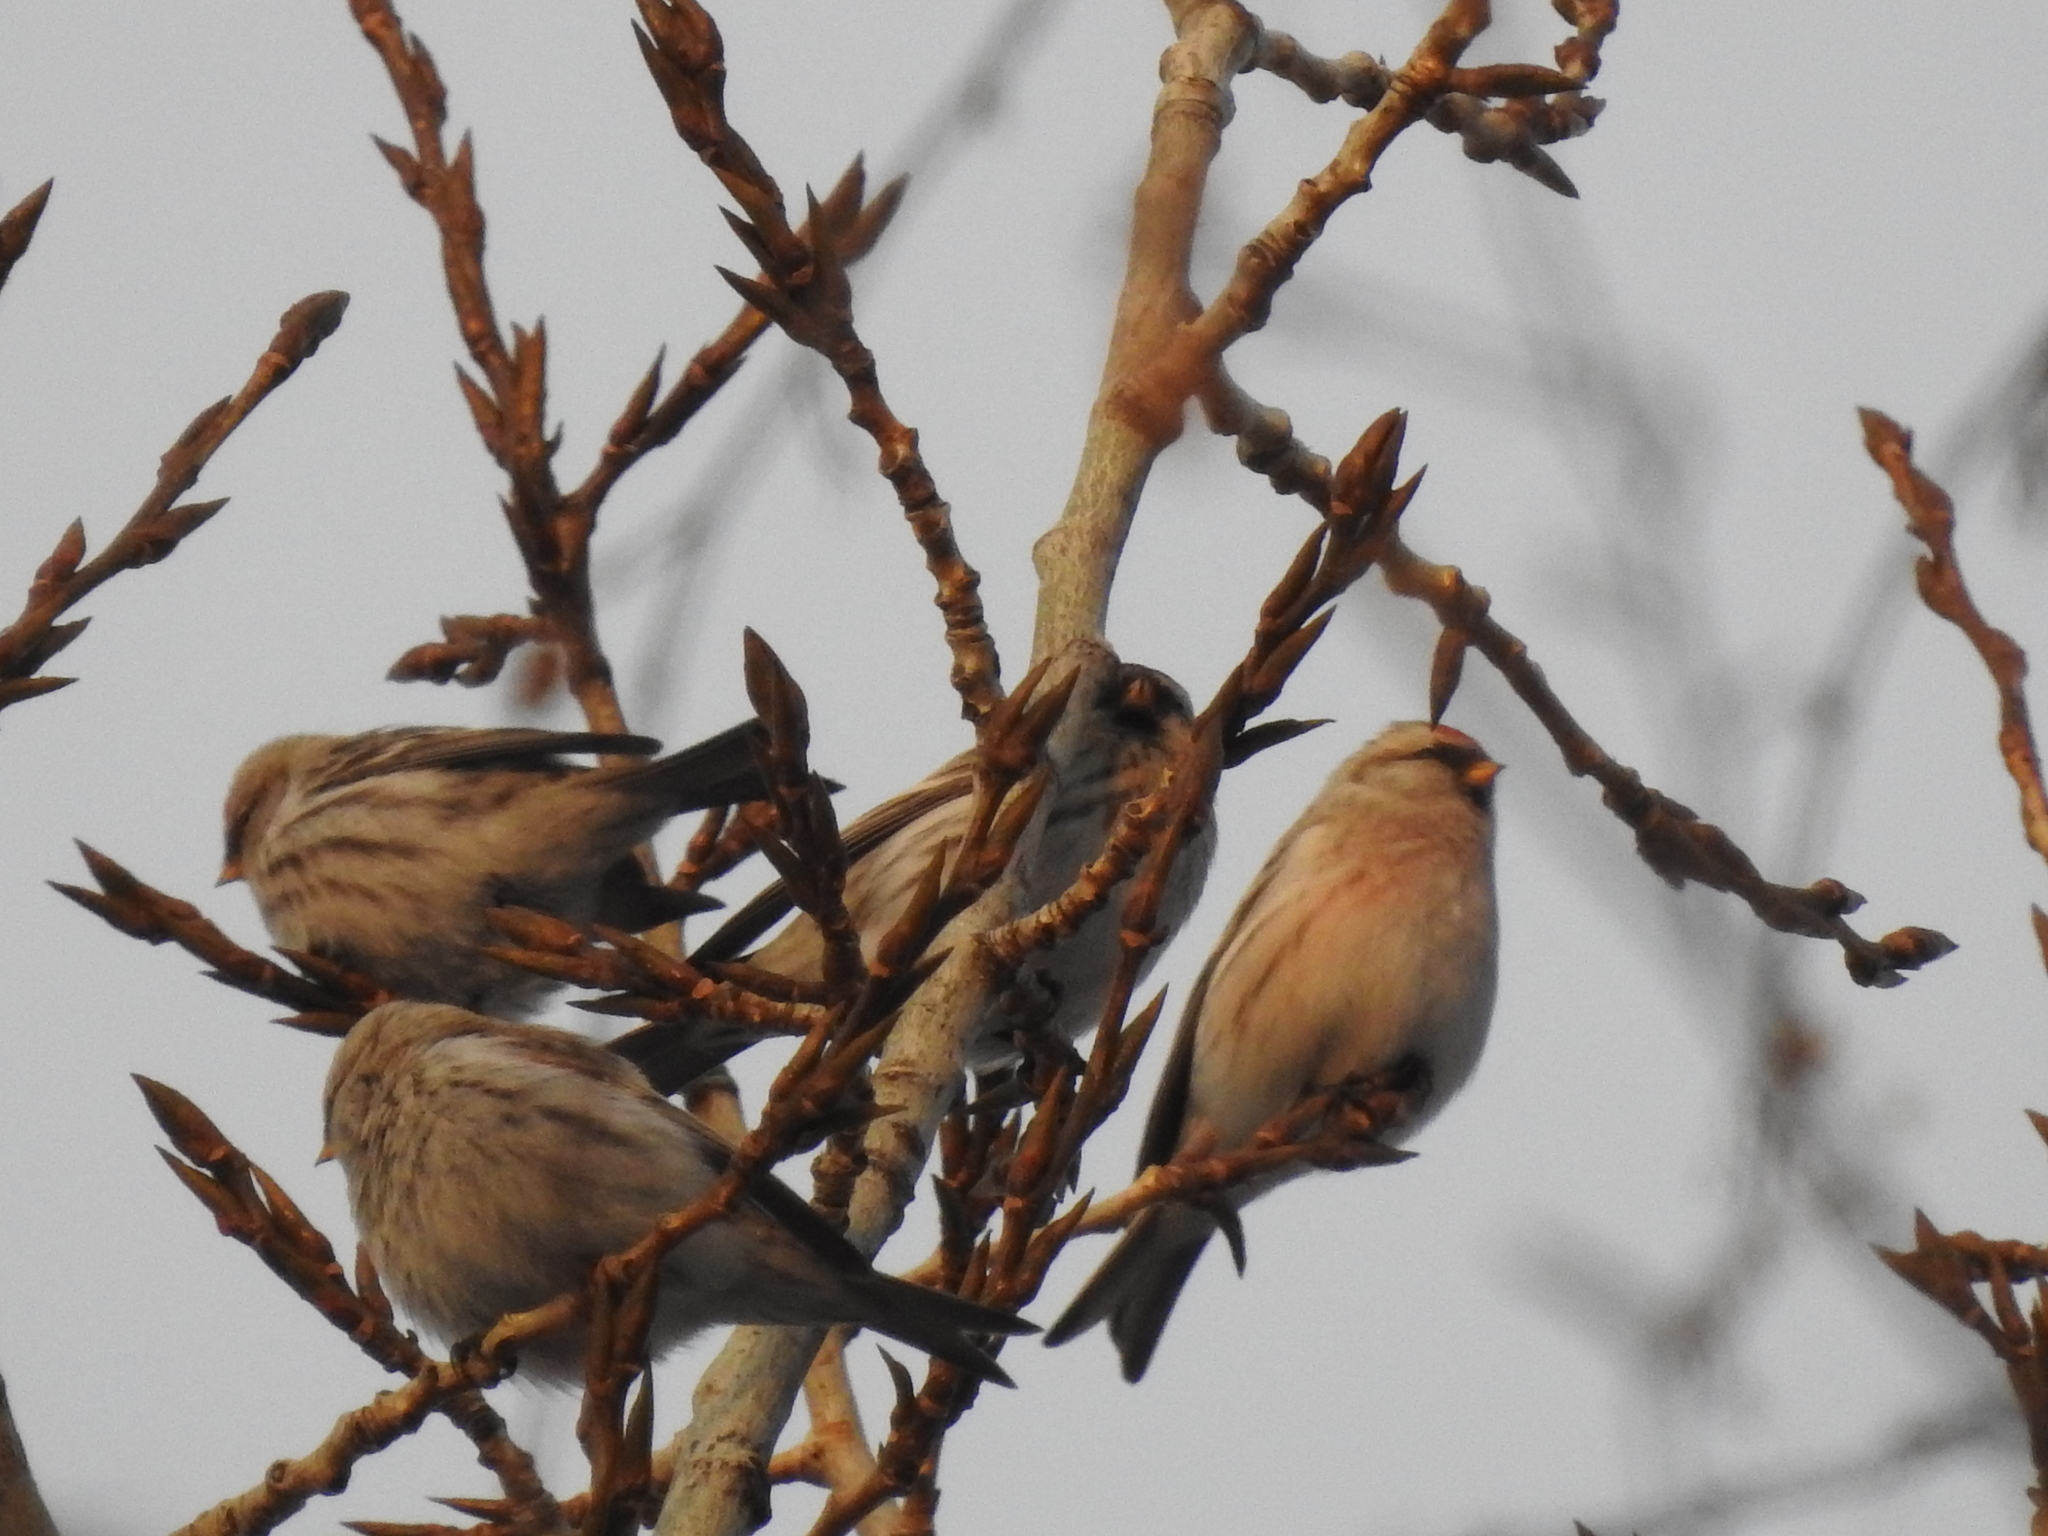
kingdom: Animalia
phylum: Chordata
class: Aves
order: Passeriformes
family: Fringillidae
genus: Acanthis
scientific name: Acanthis flammea
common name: Common redpoll
